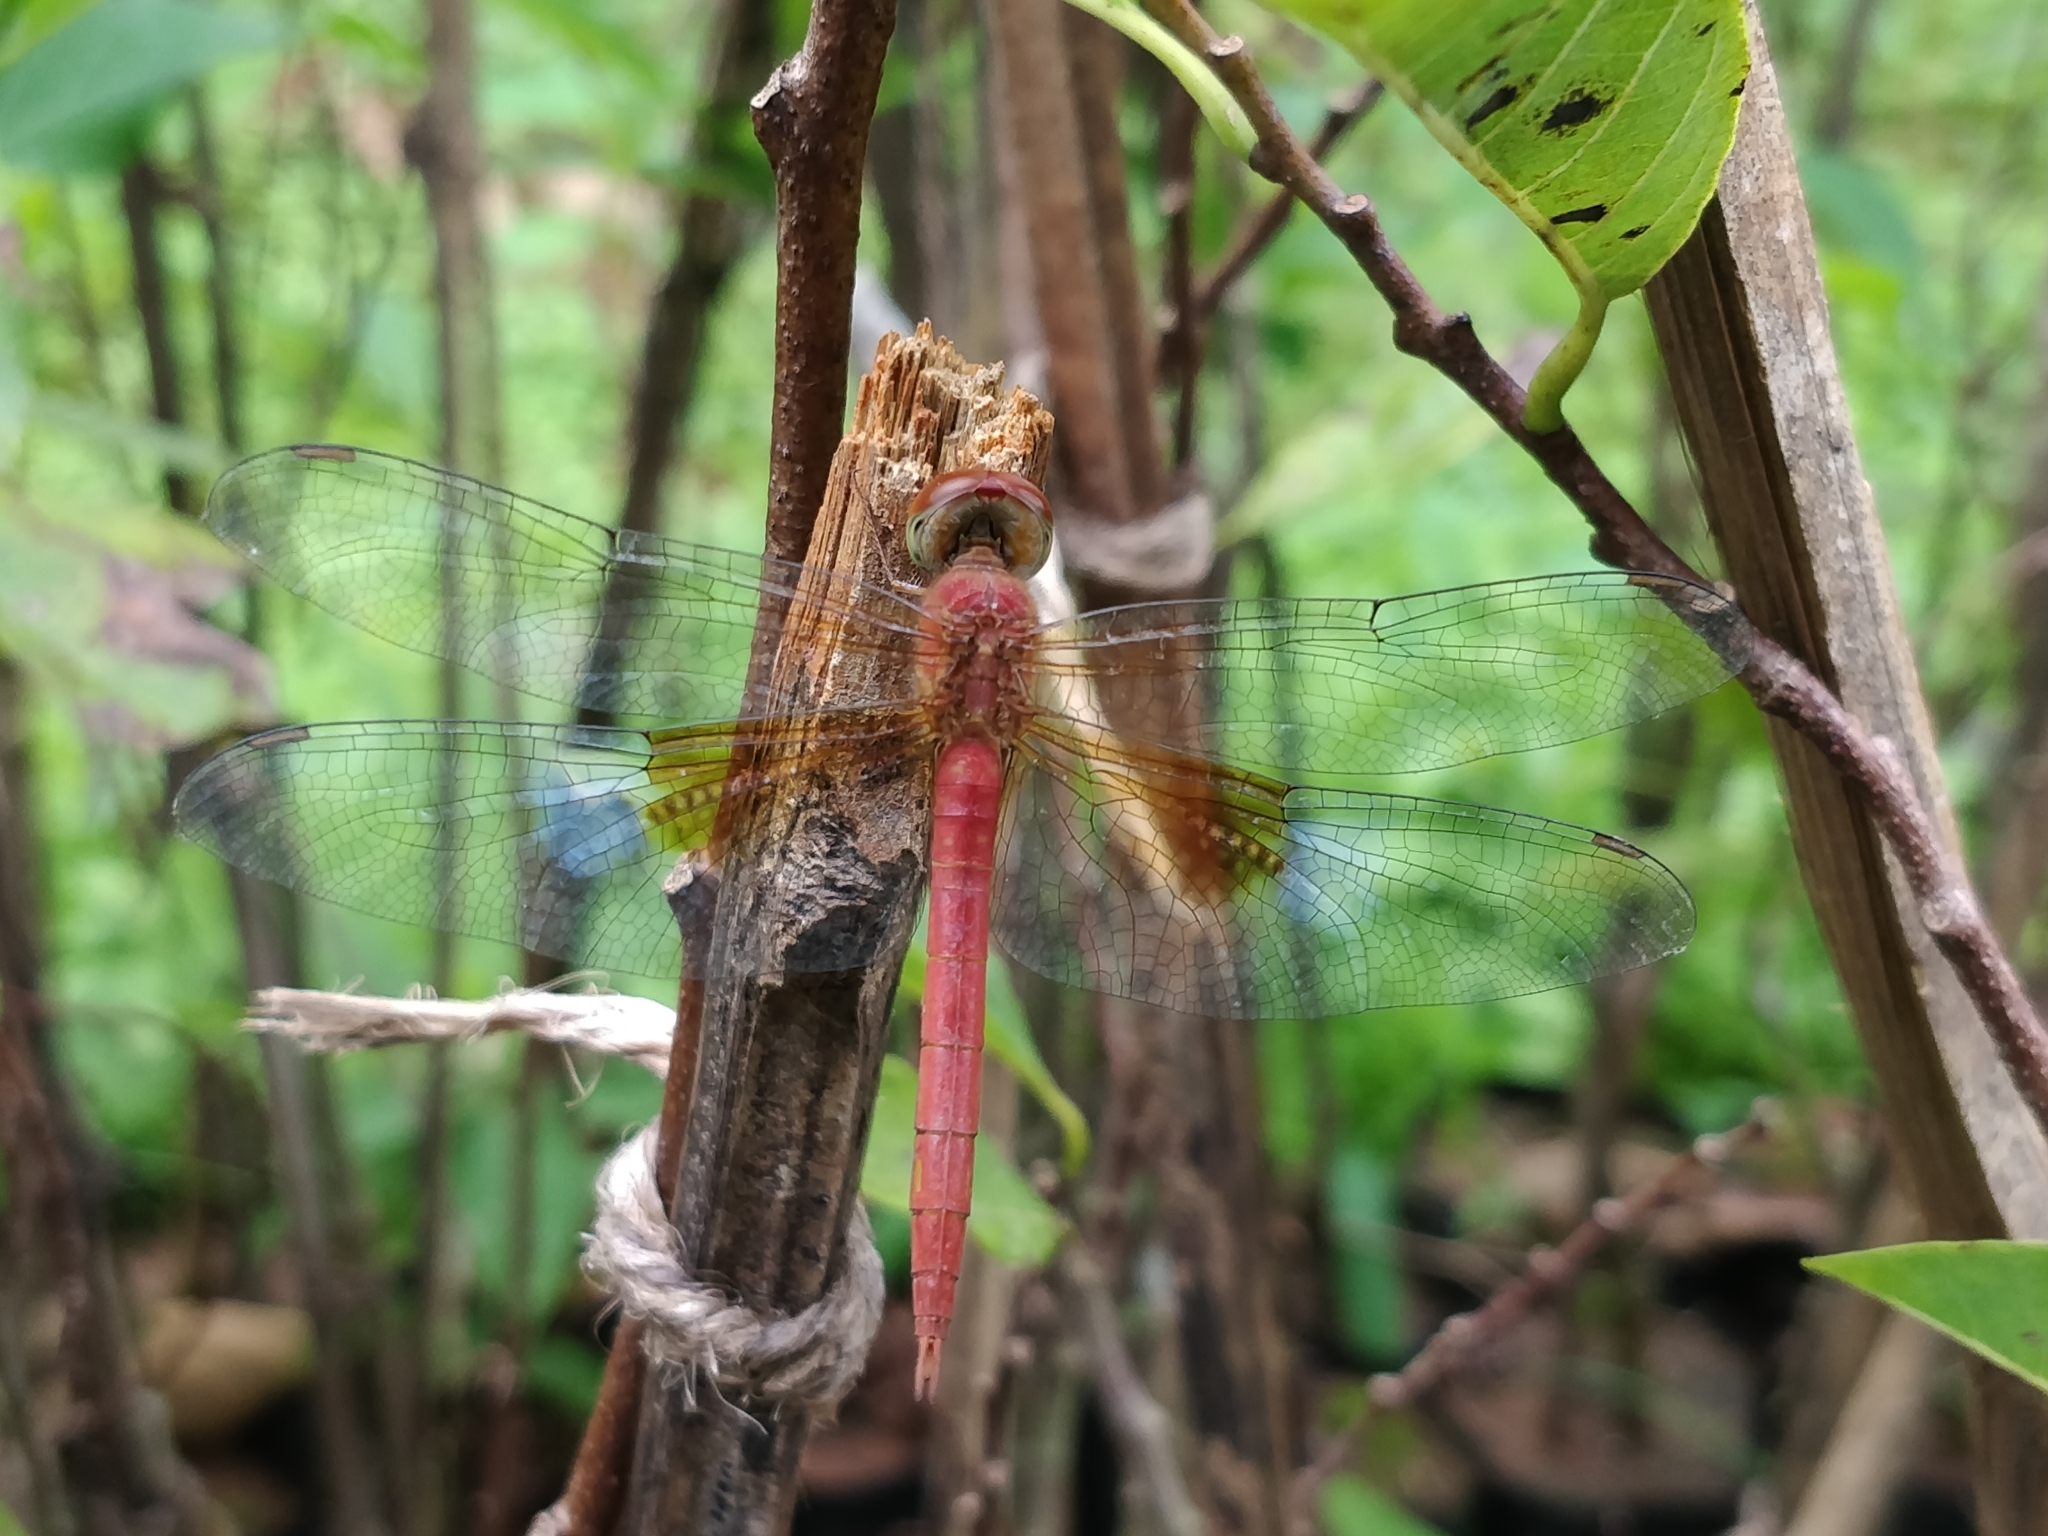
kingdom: Animalia
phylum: Arthropoda
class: Insecta
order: Odonata
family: Libellulidae
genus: Tholymis
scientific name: Tholymis tillarga
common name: Coral-tailed cloud wing
